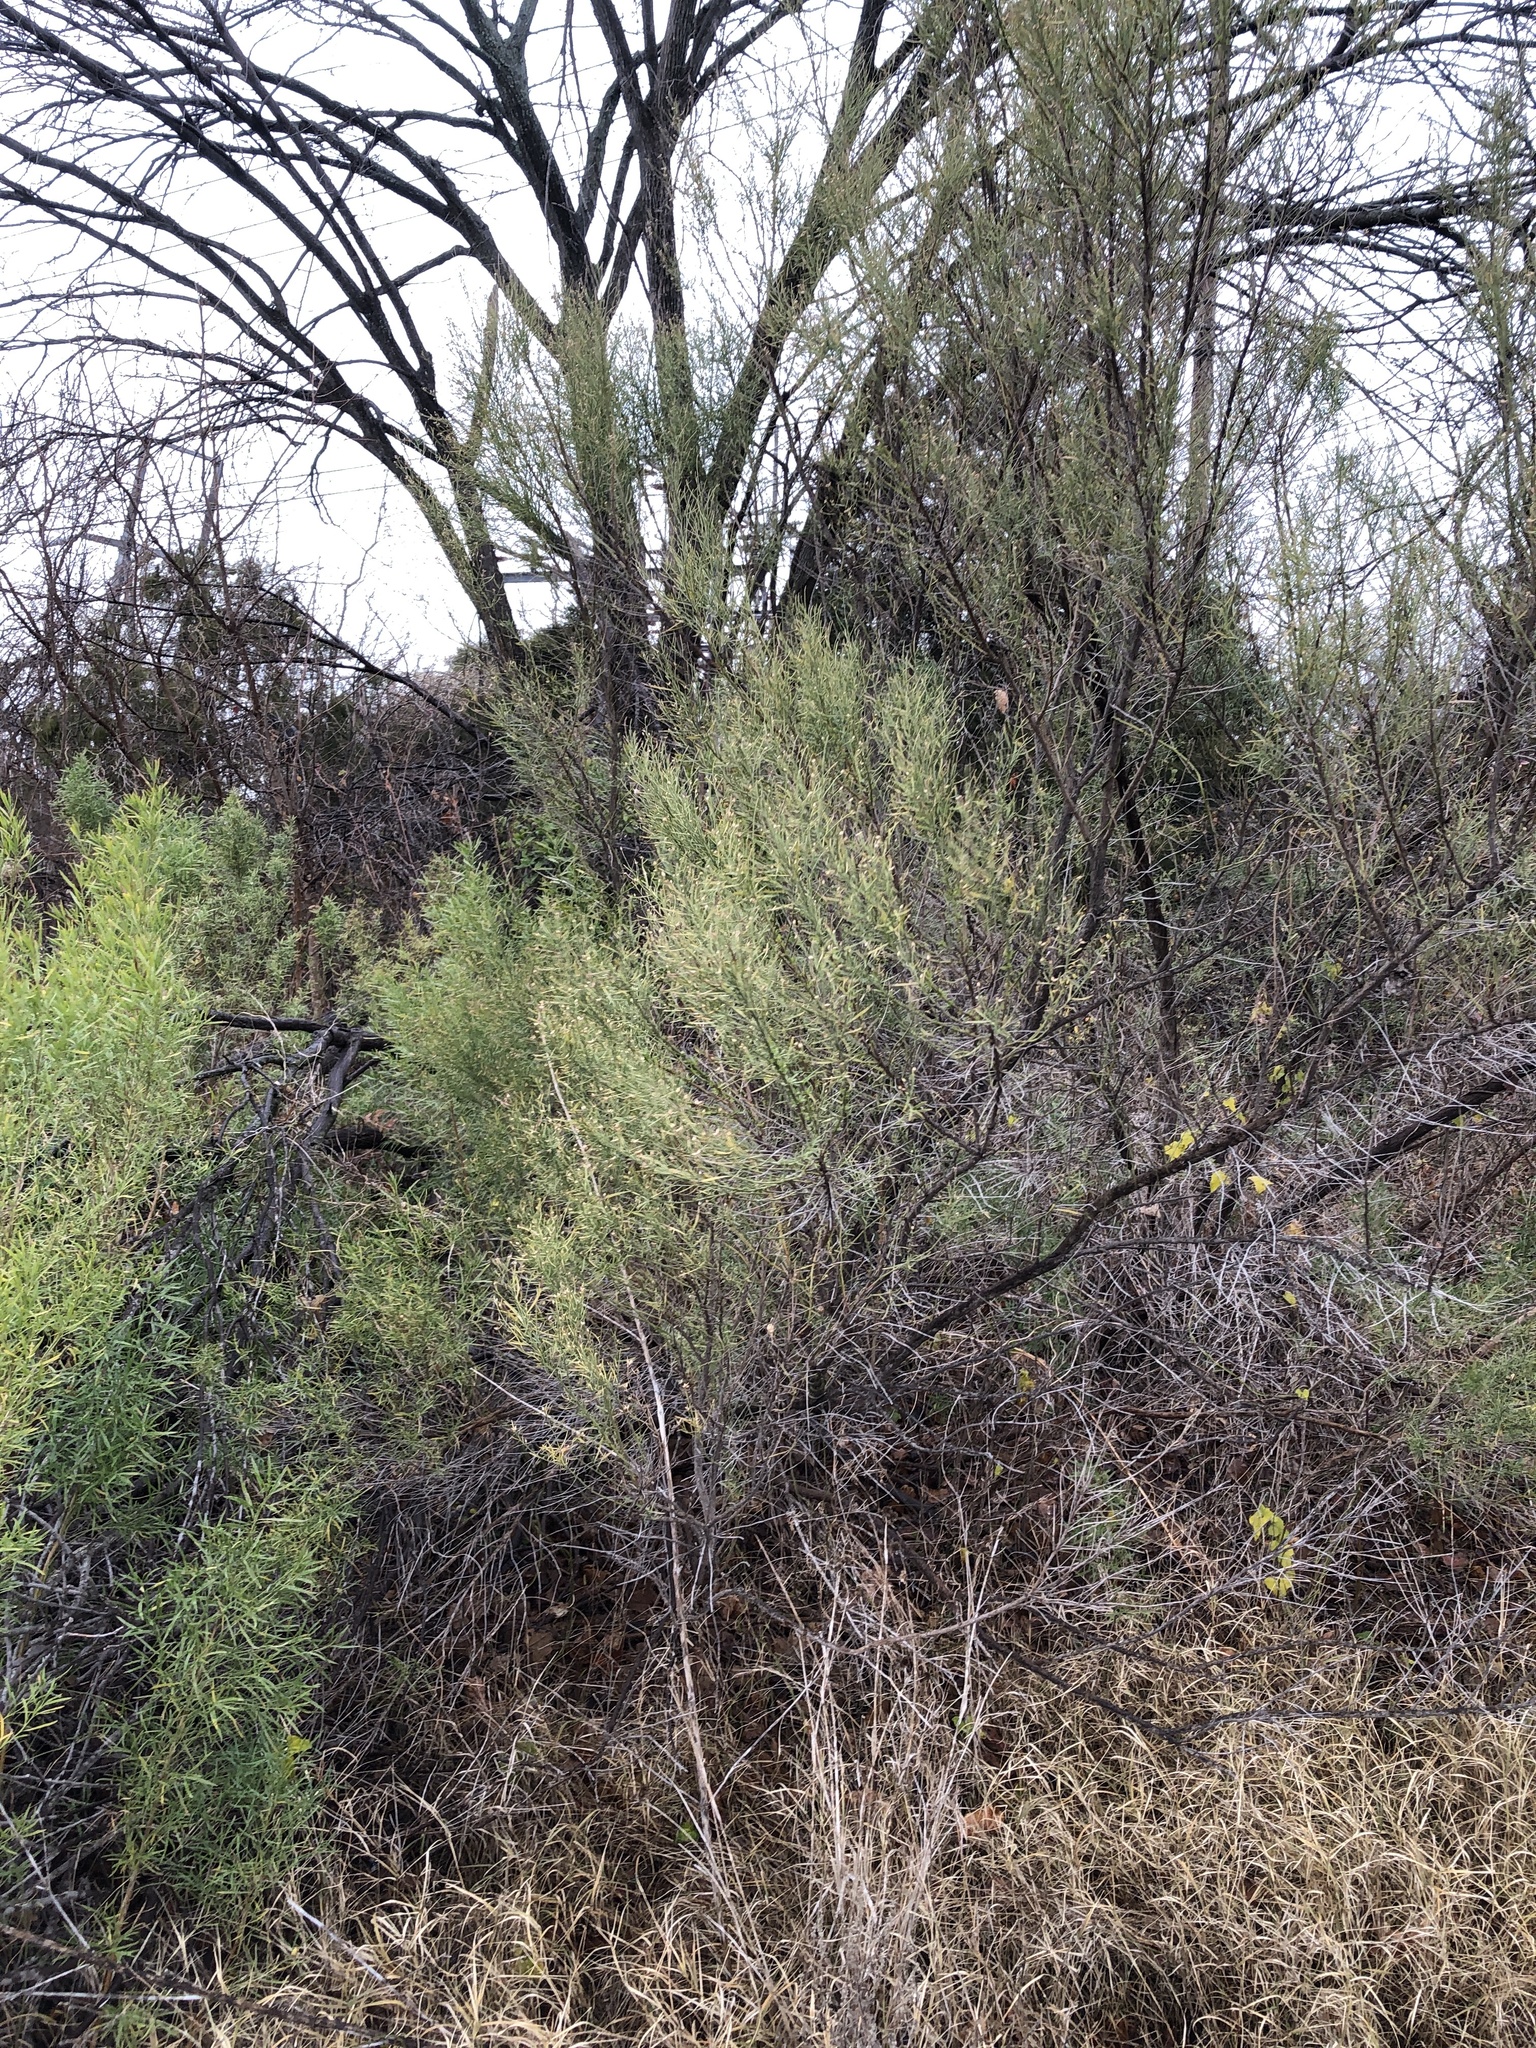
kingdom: Plantae
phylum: Tracheophyta
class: Magnoliopsida
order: Asterales
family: Asteraceae
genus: Baccharis
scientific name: Baccharis neglecta
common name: Roosevelt-weed
